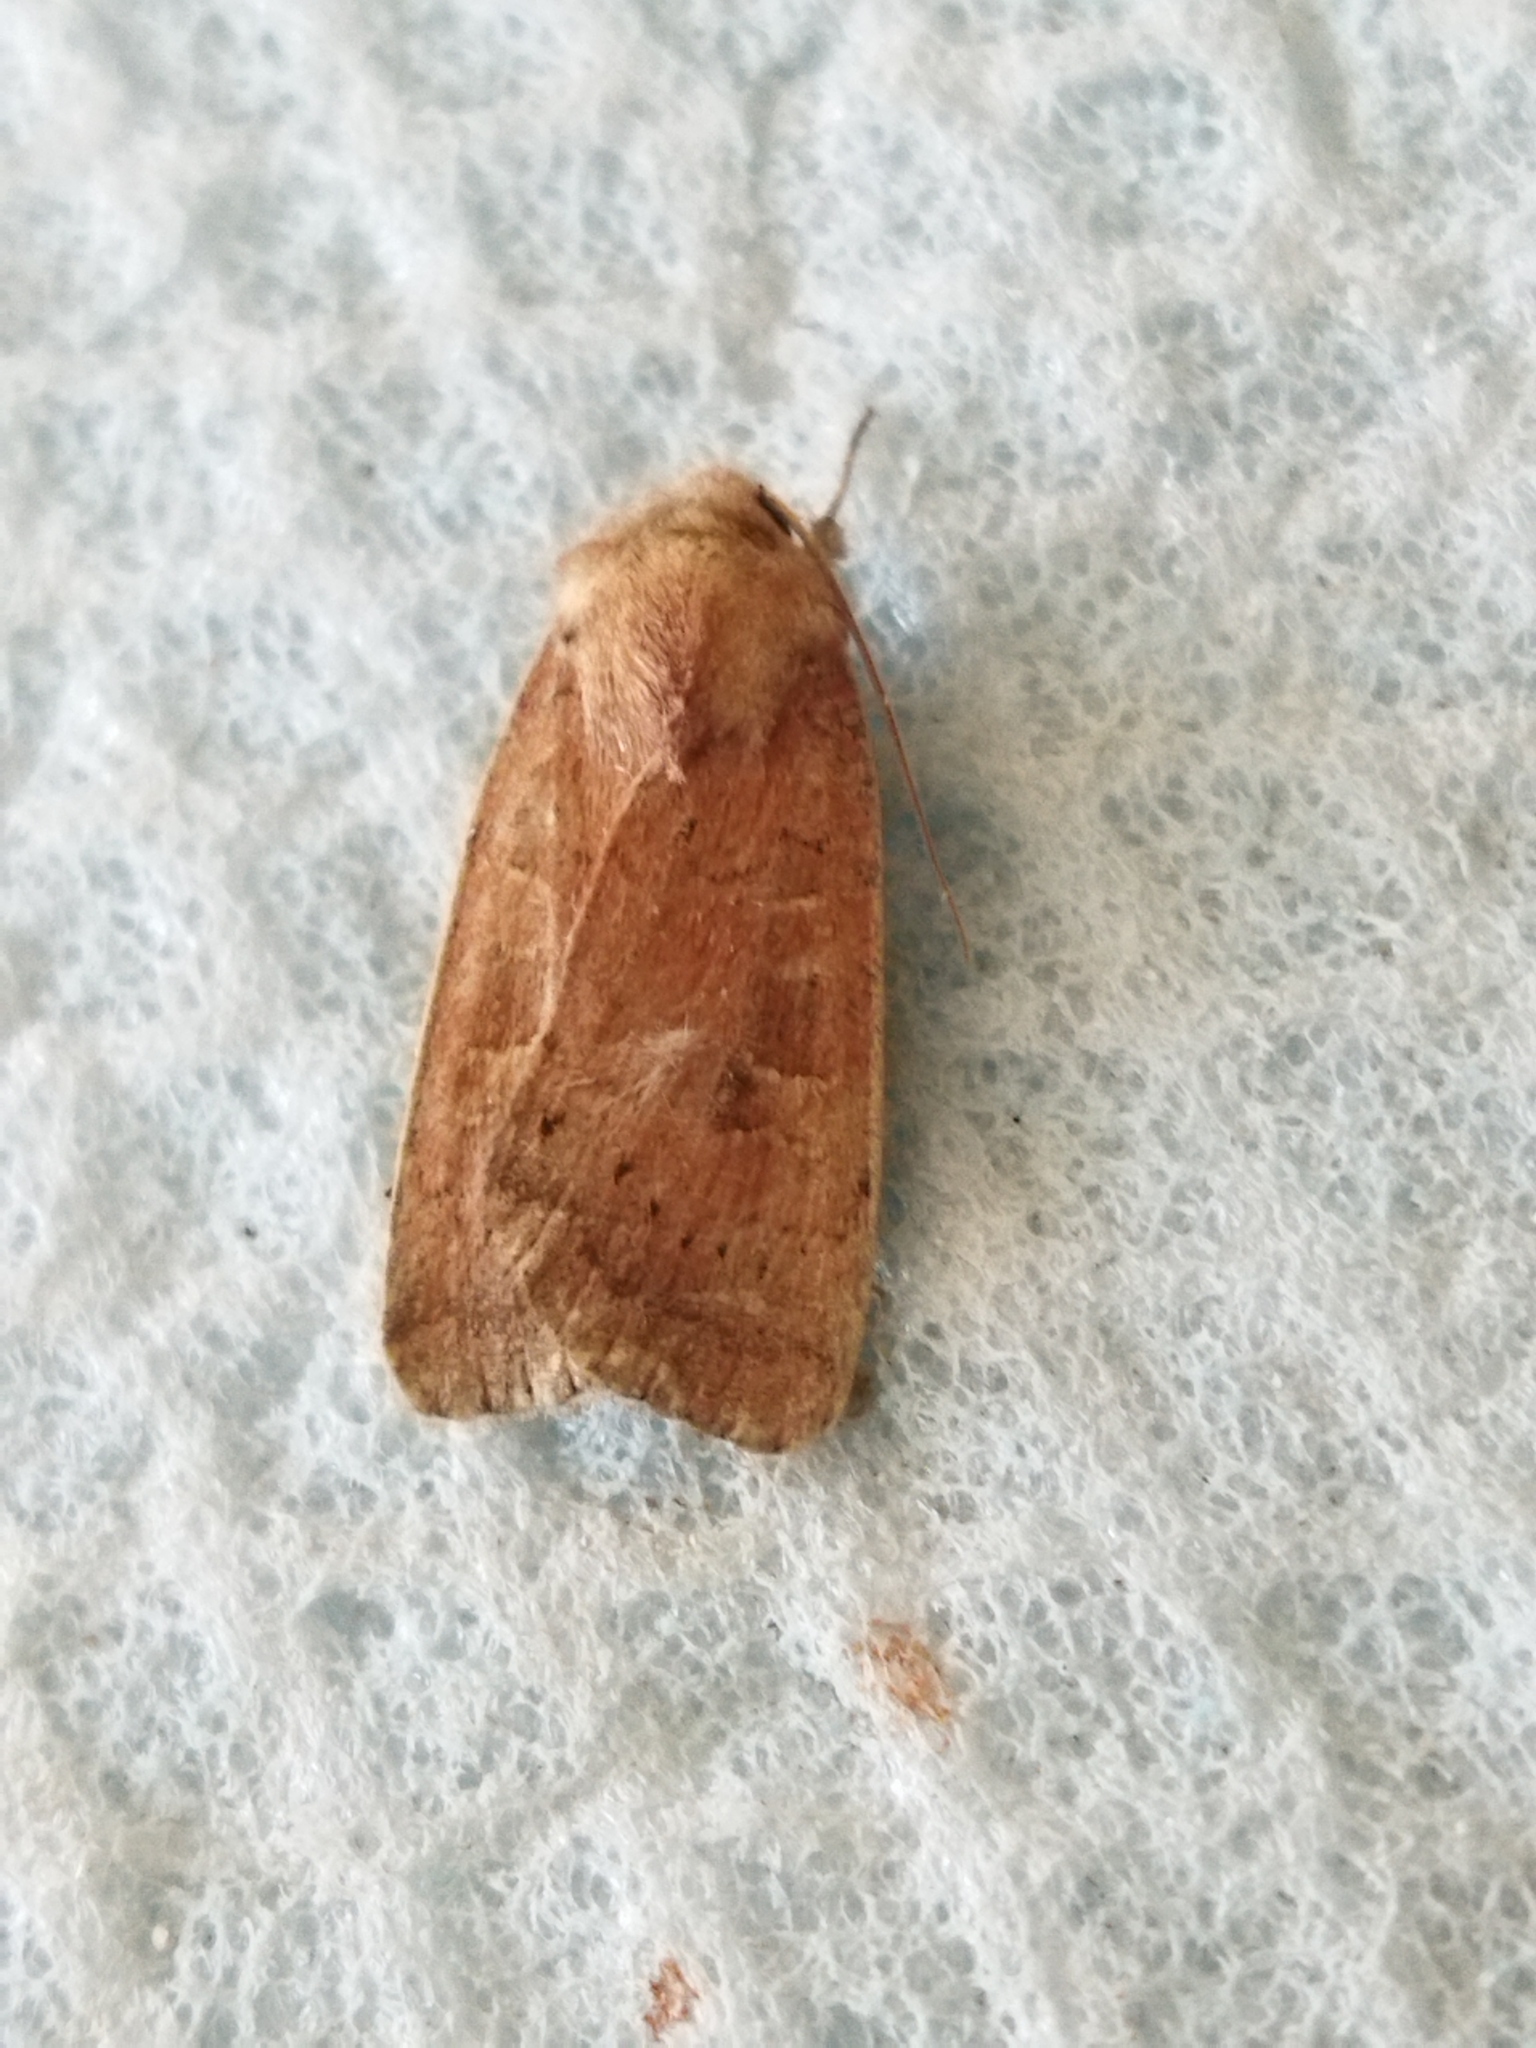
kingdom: Animalia
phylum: Arthropoda
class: Insecta
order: Lepidoptera
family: Noctuidae
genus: Xestia
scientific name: Xestia xanthographa
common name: Square-spot rustic
